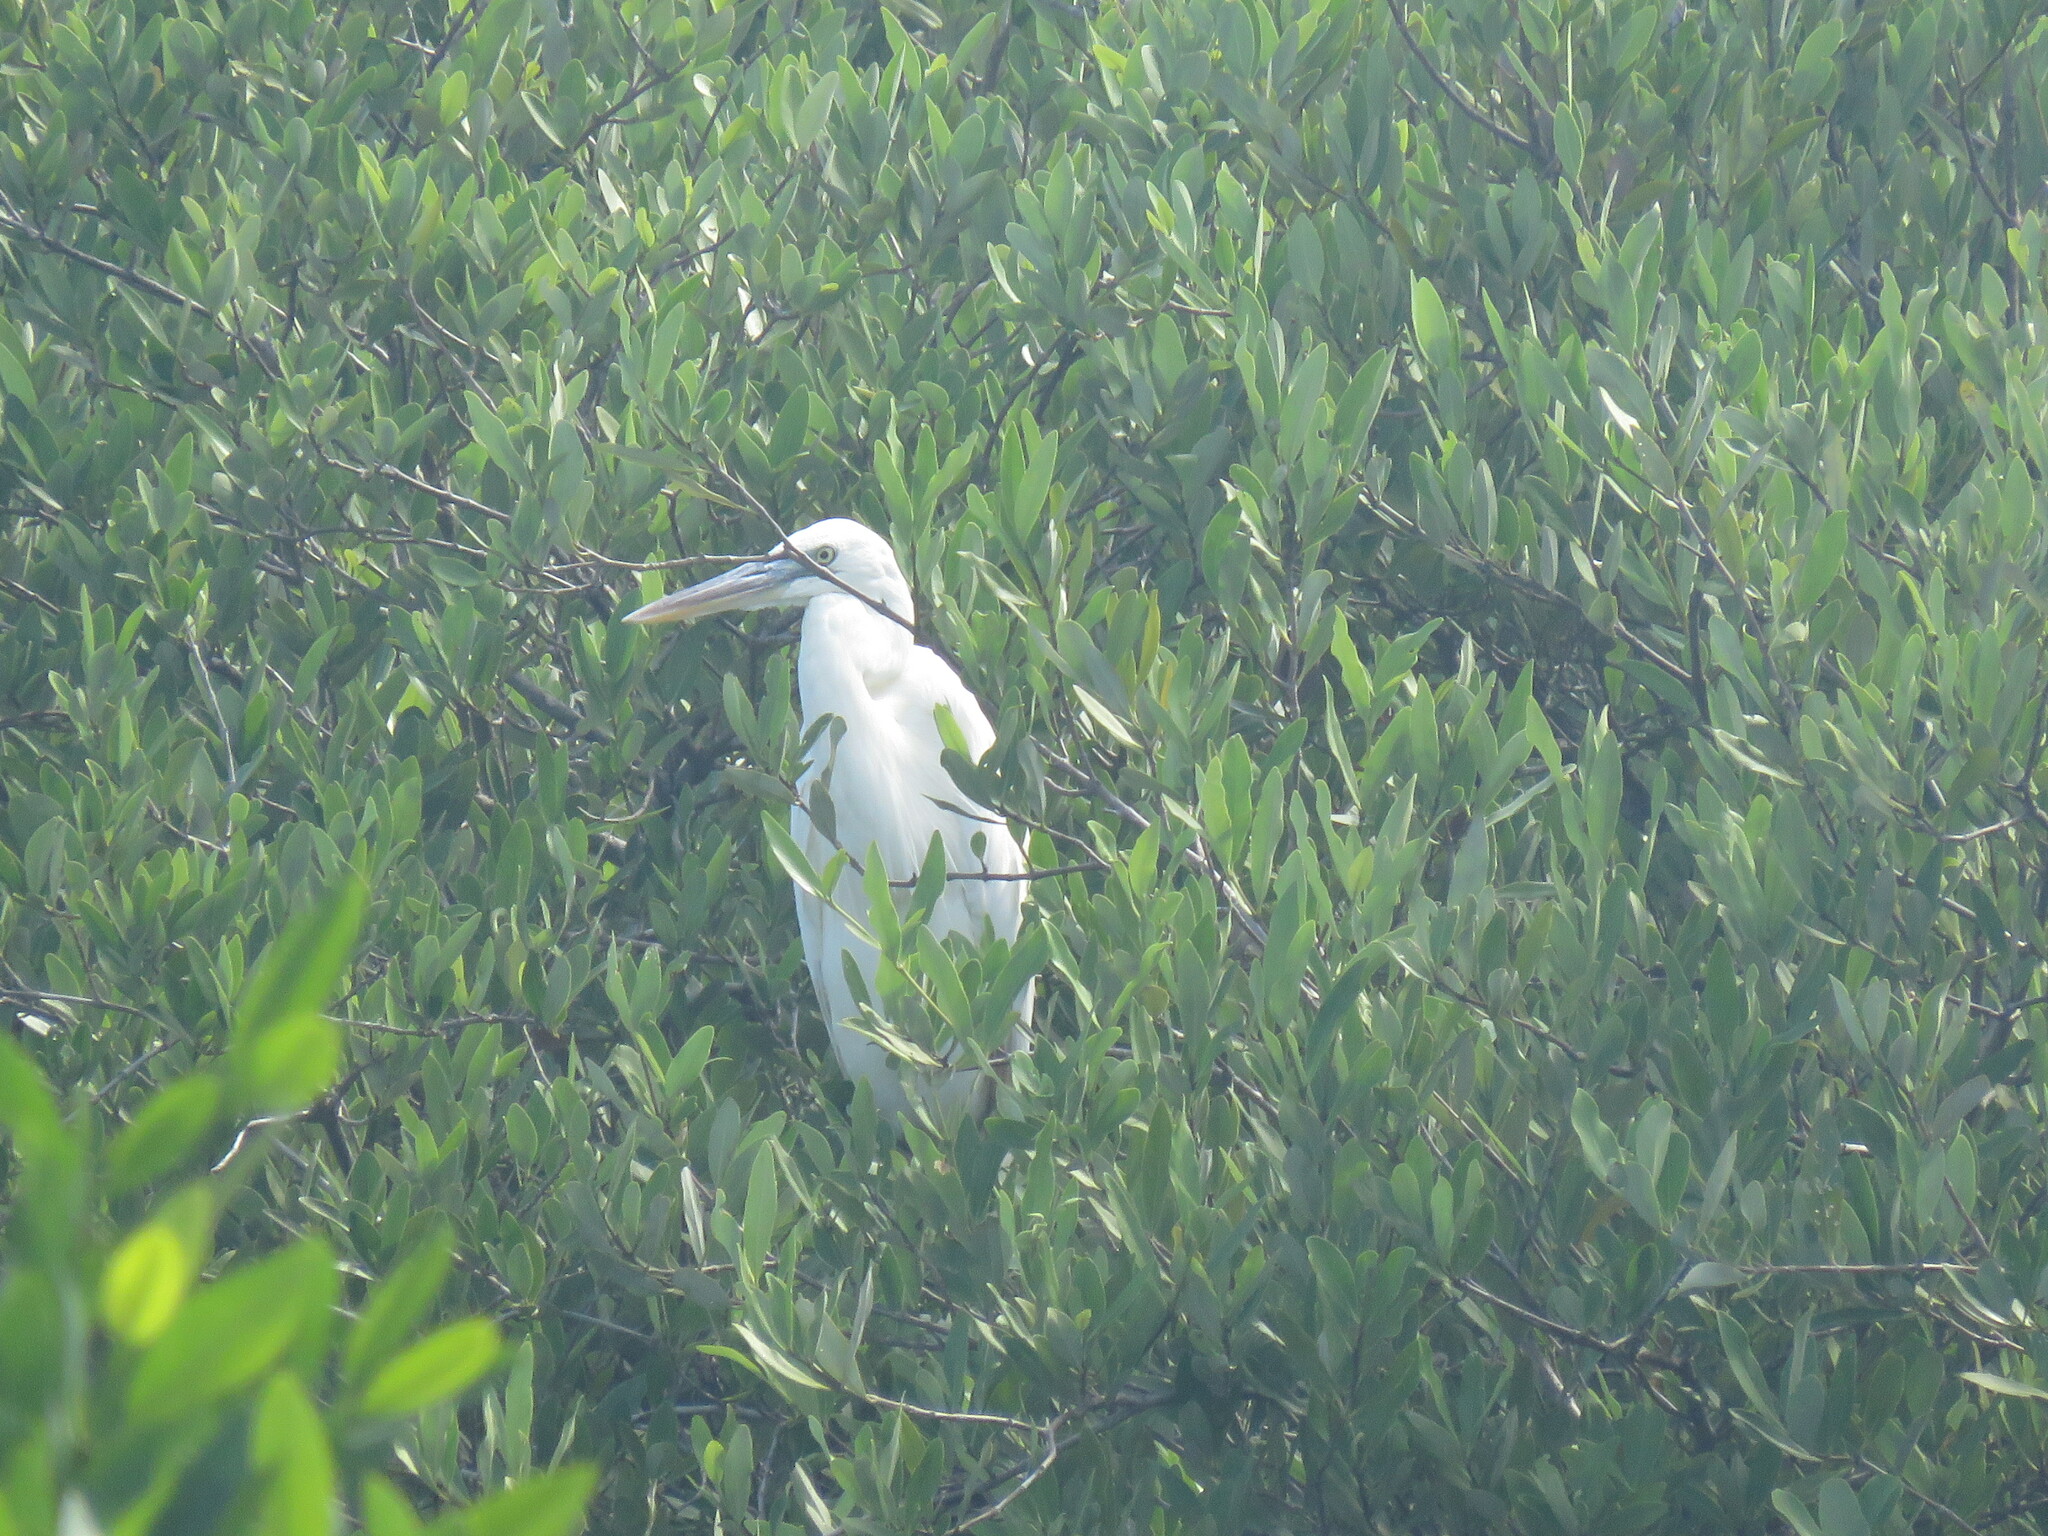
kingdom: Animalia
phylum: Chordata
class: Aves
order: Pelecaniformes
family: Ardeidae
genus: Ardea
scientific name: Ardea herodias
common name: Great blue heron
